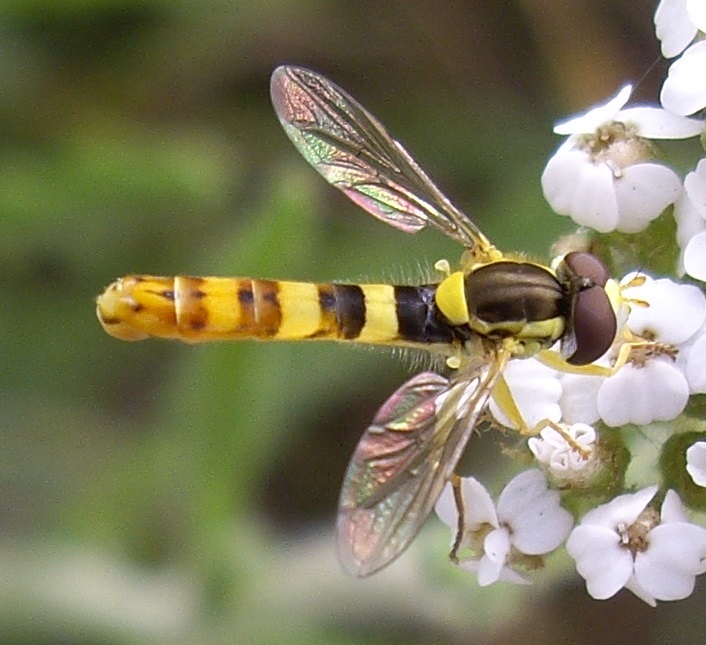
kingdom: Animalia
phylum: Arthropoda
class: Insecta
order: Diptera
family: Syrphidae
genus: Sphaerophoria
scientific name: Sphaerophoria scripta
